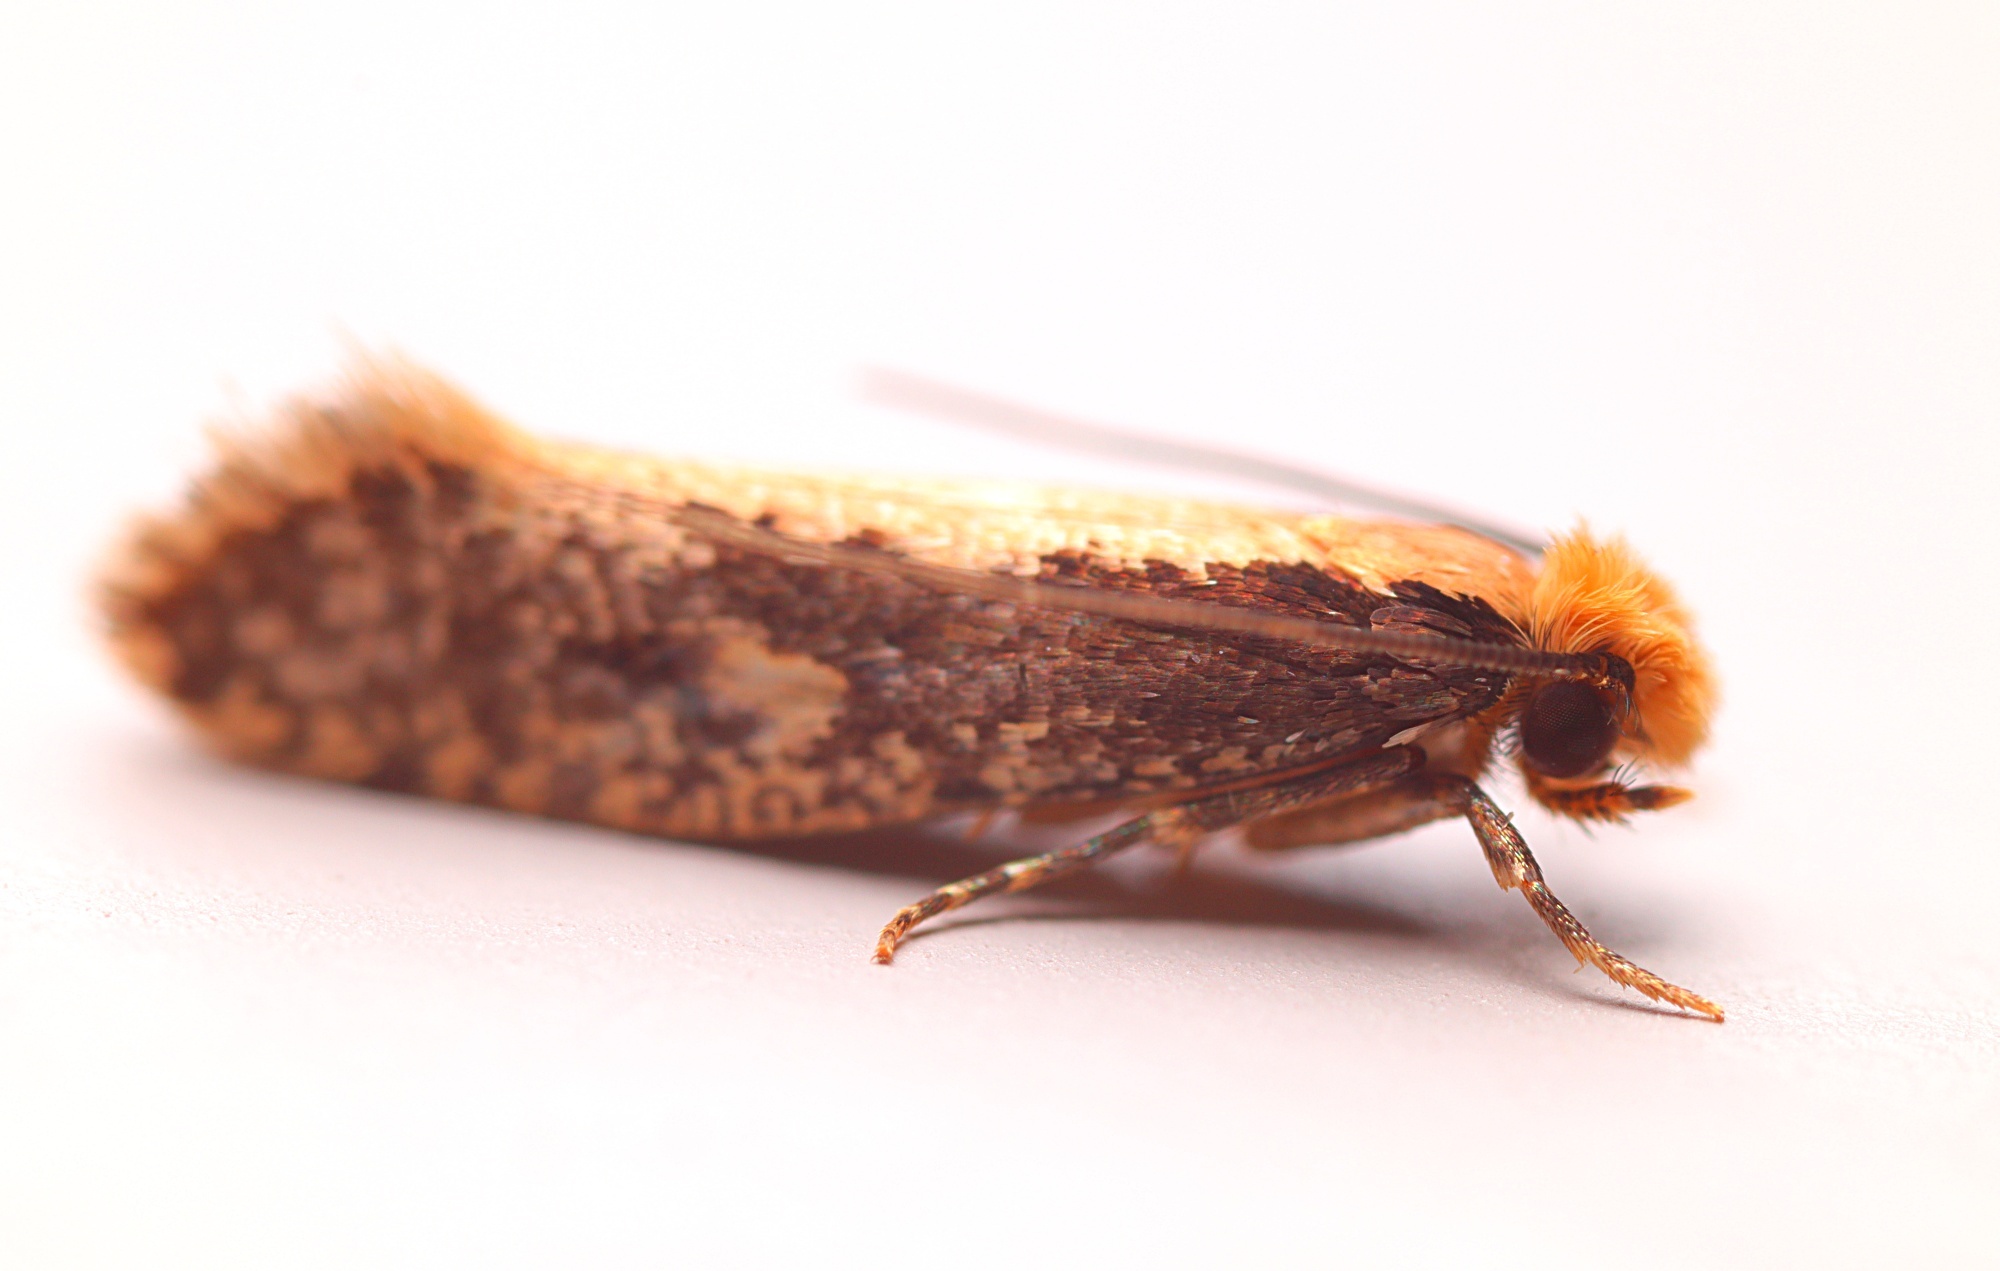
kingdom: Animalia
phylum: Arthropoda
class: Insecta
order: Lepidoptera
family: Tineidae
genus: Monopis
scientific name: Monopis crocicapitella
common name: Moth
